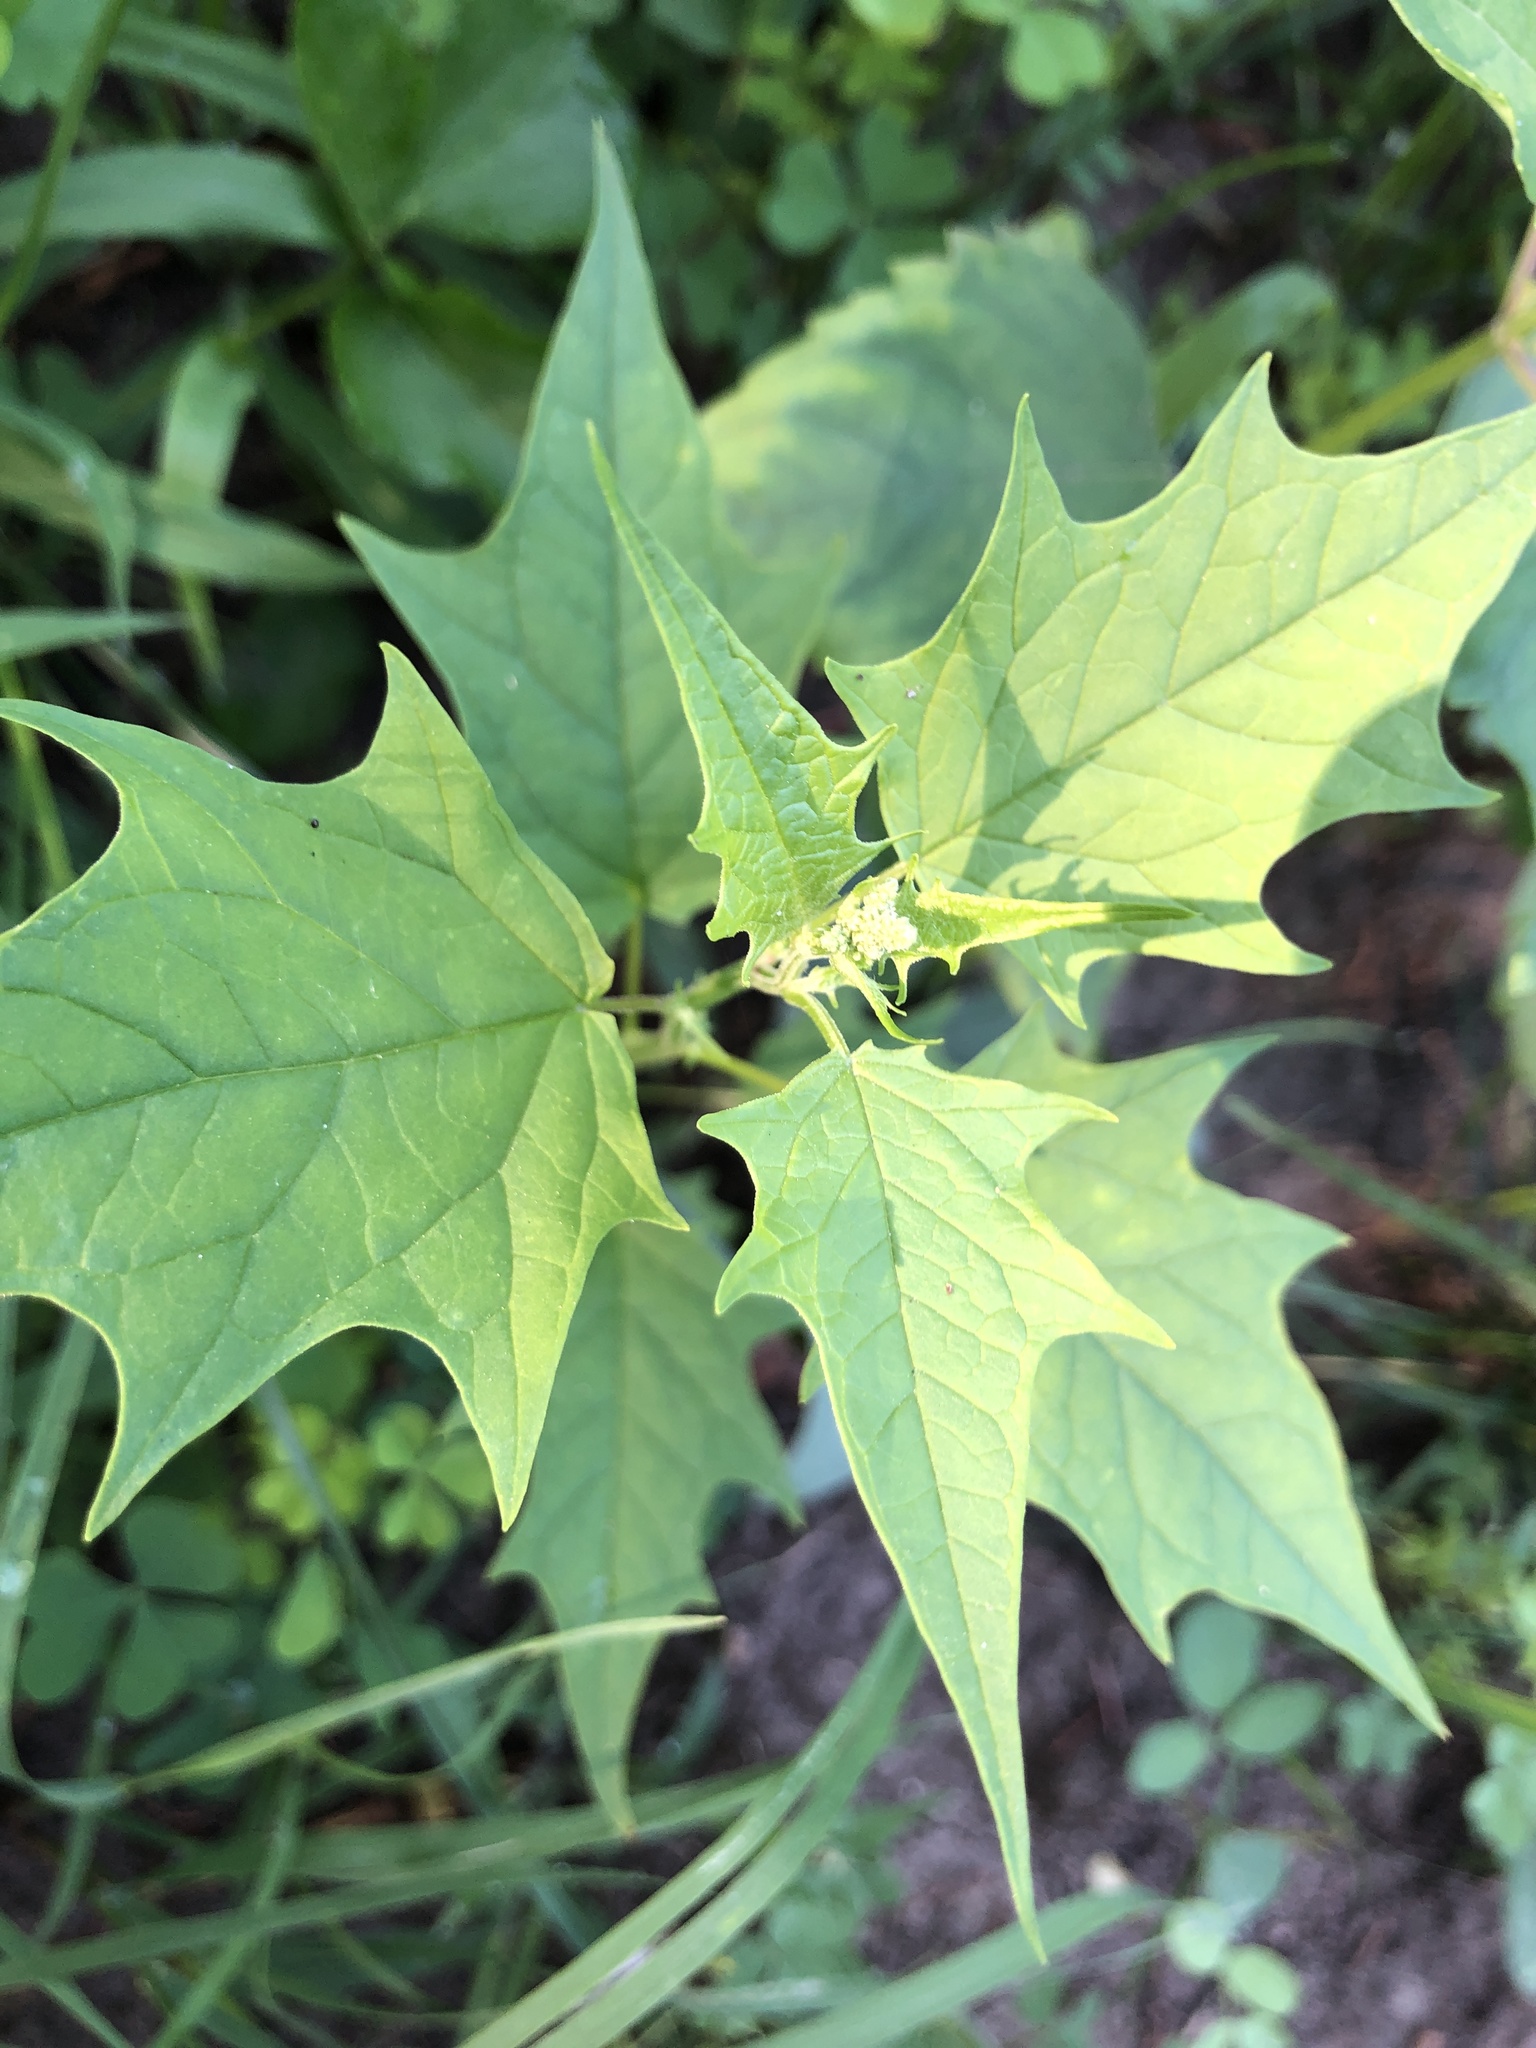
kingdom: Plantae
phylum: Tracheophyta
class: Magnoliopsida
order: Caryophyllales
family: Amaranthaceae
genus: Chenopodiastrum
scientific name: Chenopodiastrum hybridum
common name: Mapleleaf goosefoot
